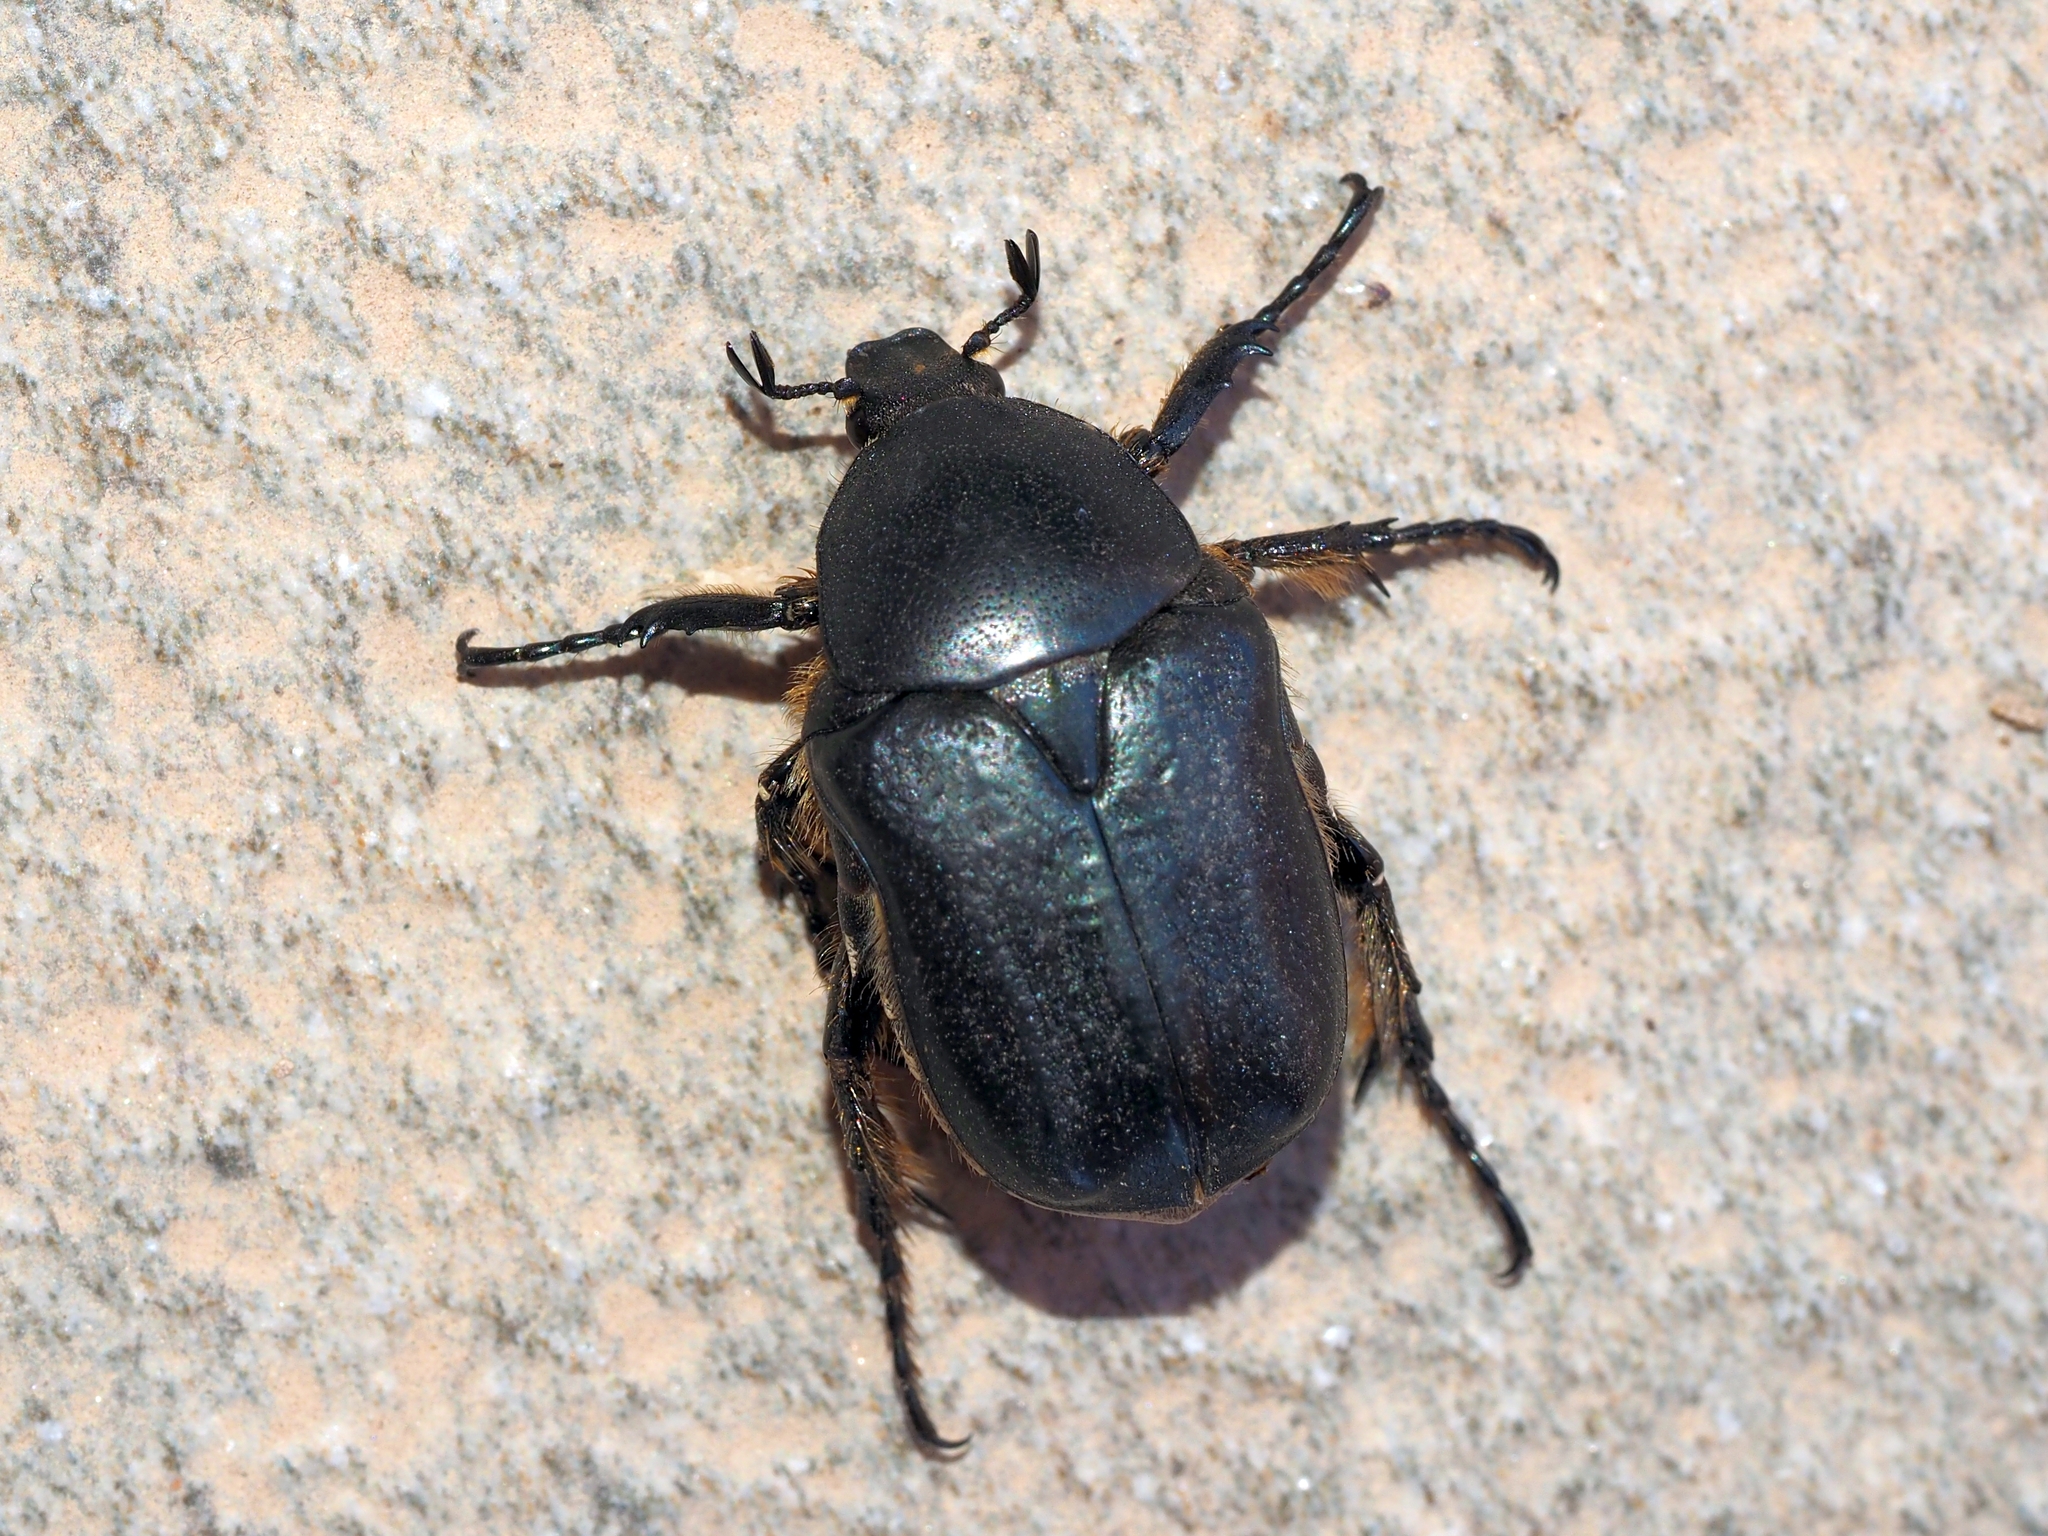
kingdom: Animalia
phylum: Arthropoda
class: Insecta
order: Coleoptera
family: Scarabaeidae
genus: Cetonia
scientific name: Cetonia asiatica
